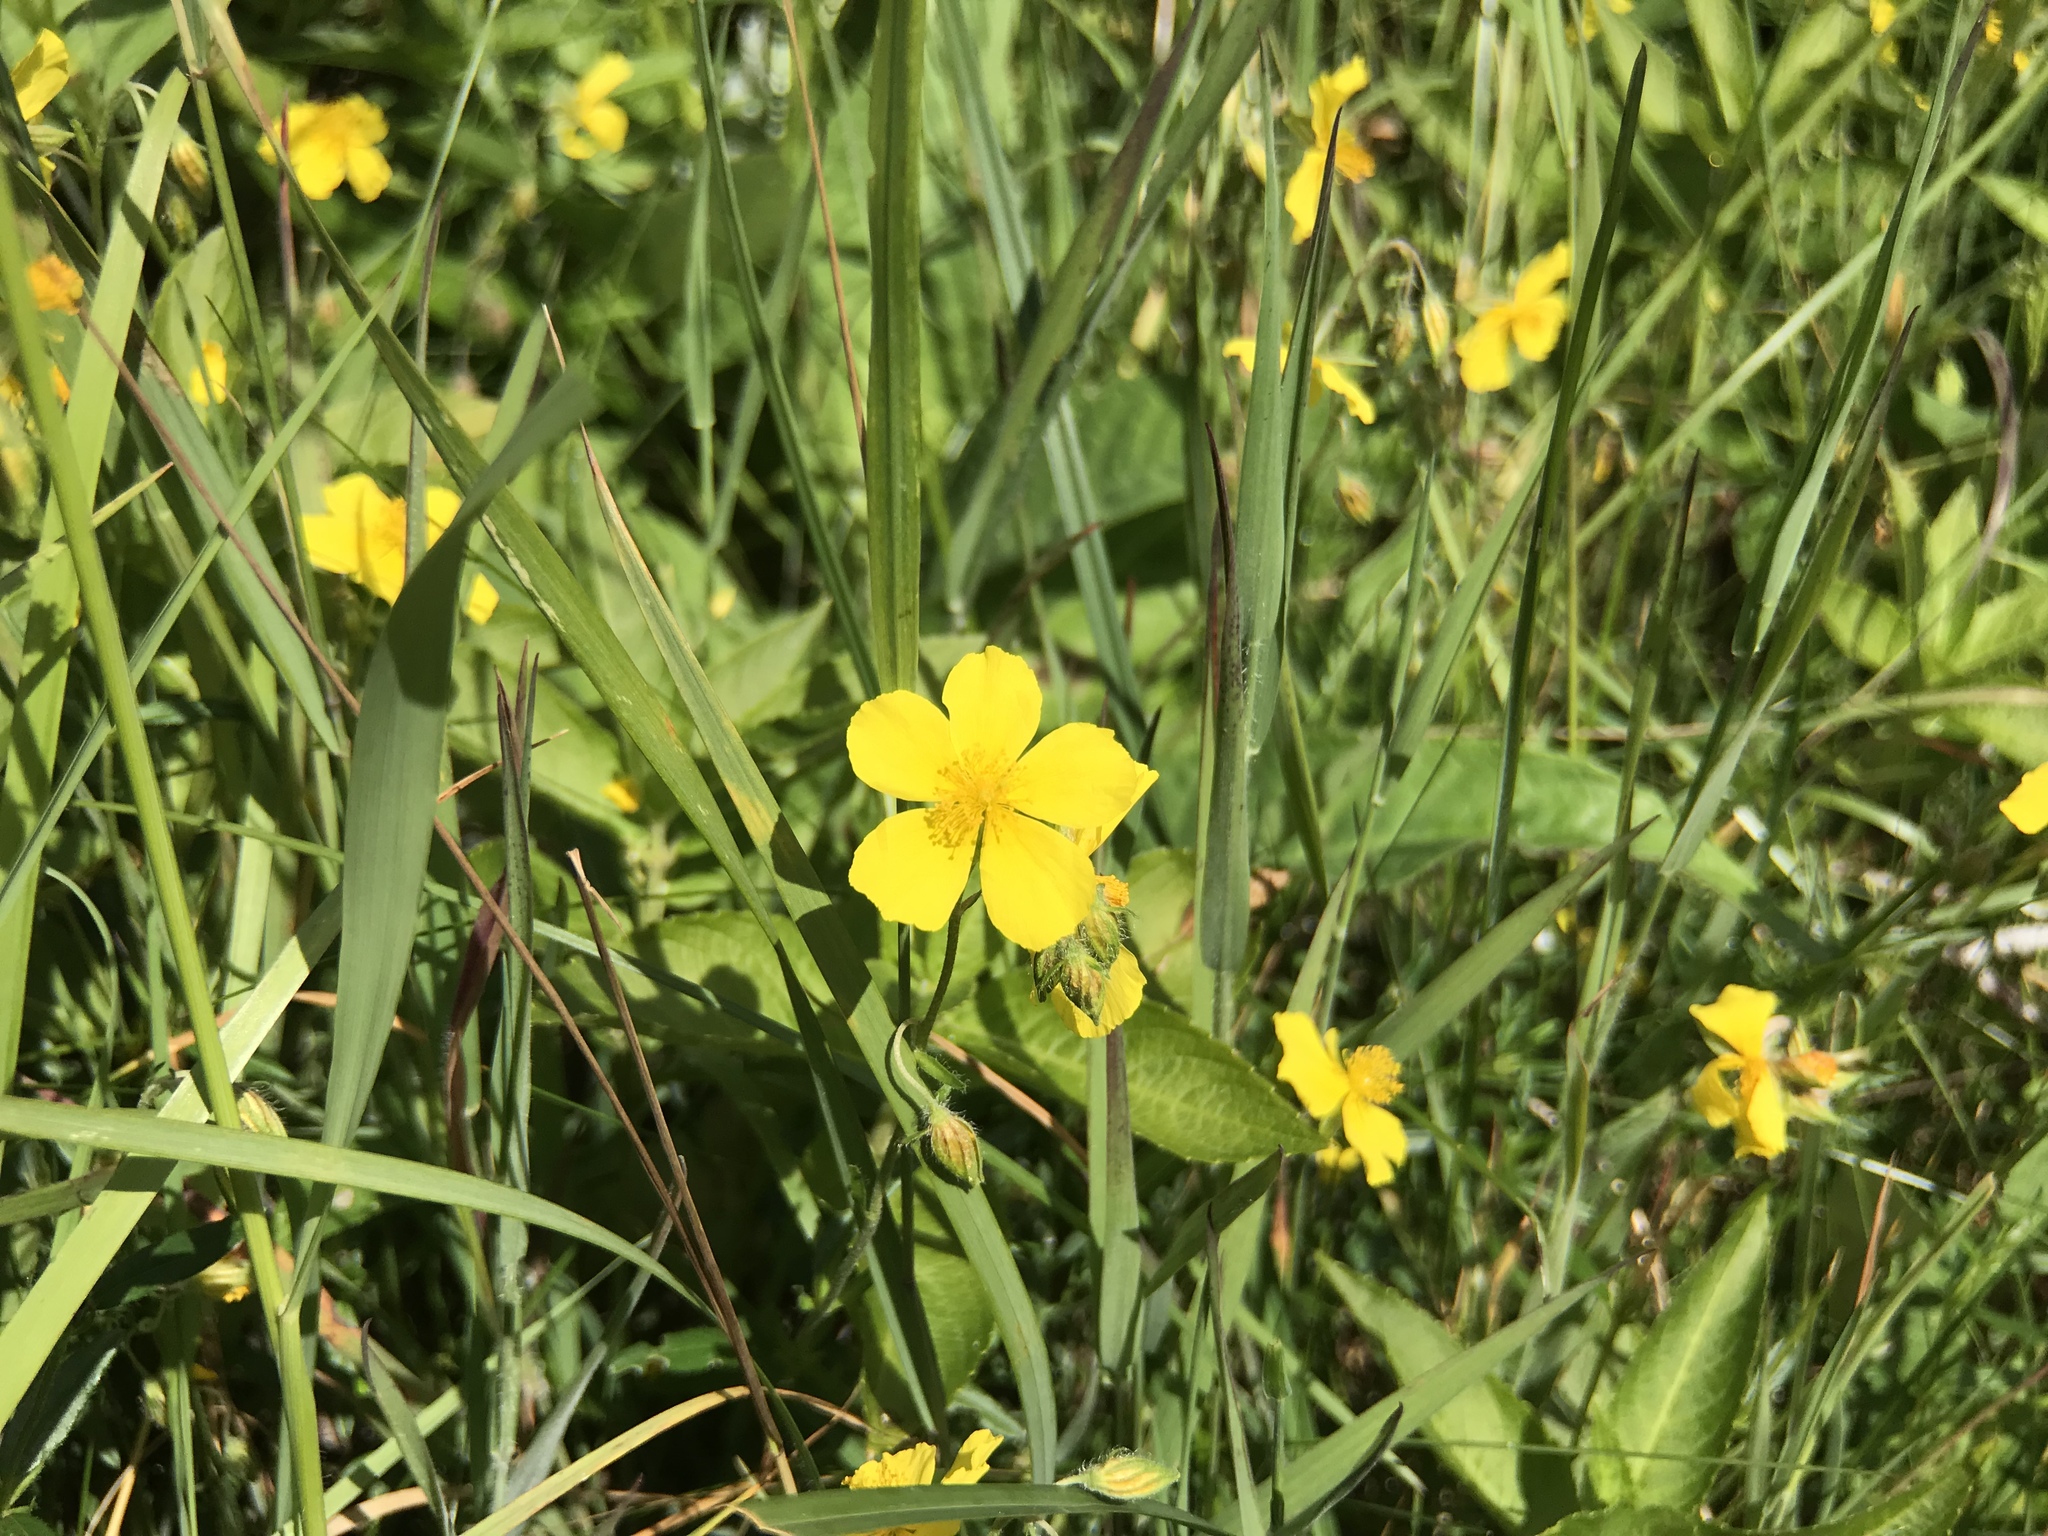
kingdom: Plantae
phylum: Tracheophyta
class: Magnoliopsida
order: Malvales
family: Cistaceae
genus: Helianthemum
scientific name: Helianthemum nummularium
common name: Common rock-rose
